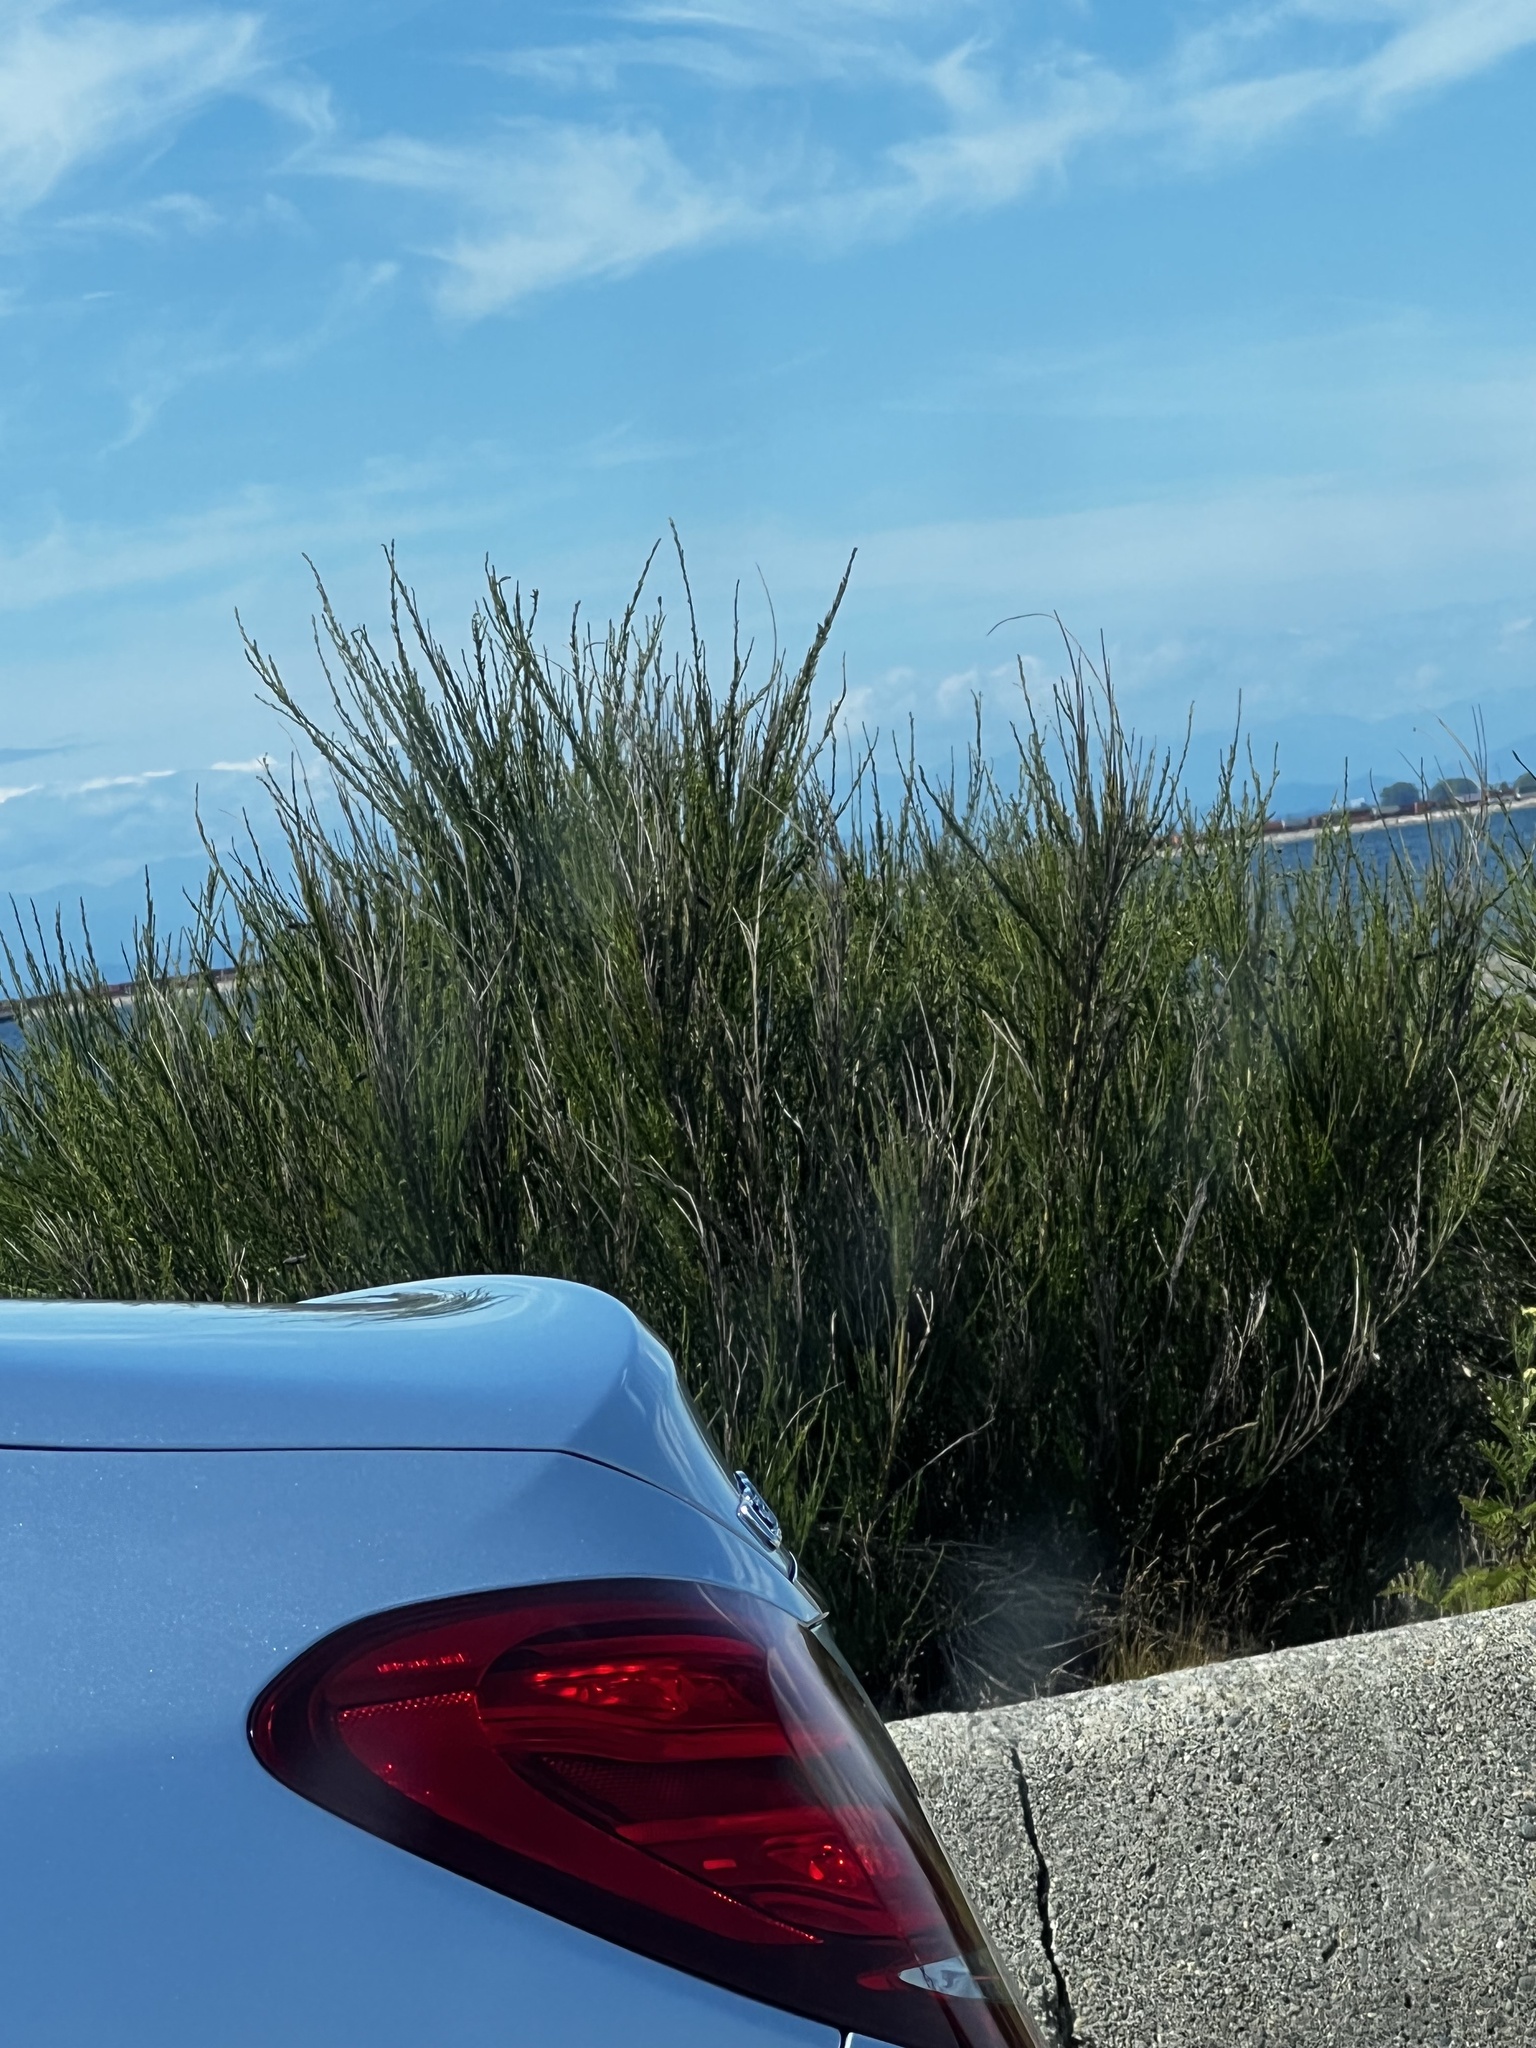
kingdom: Plantae
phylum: Tracheophyta
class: Magnoliopsida
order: Fabales
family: Fabaceae
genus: Cytisus
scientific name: Cytisus scoparius
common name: Scotch broom
